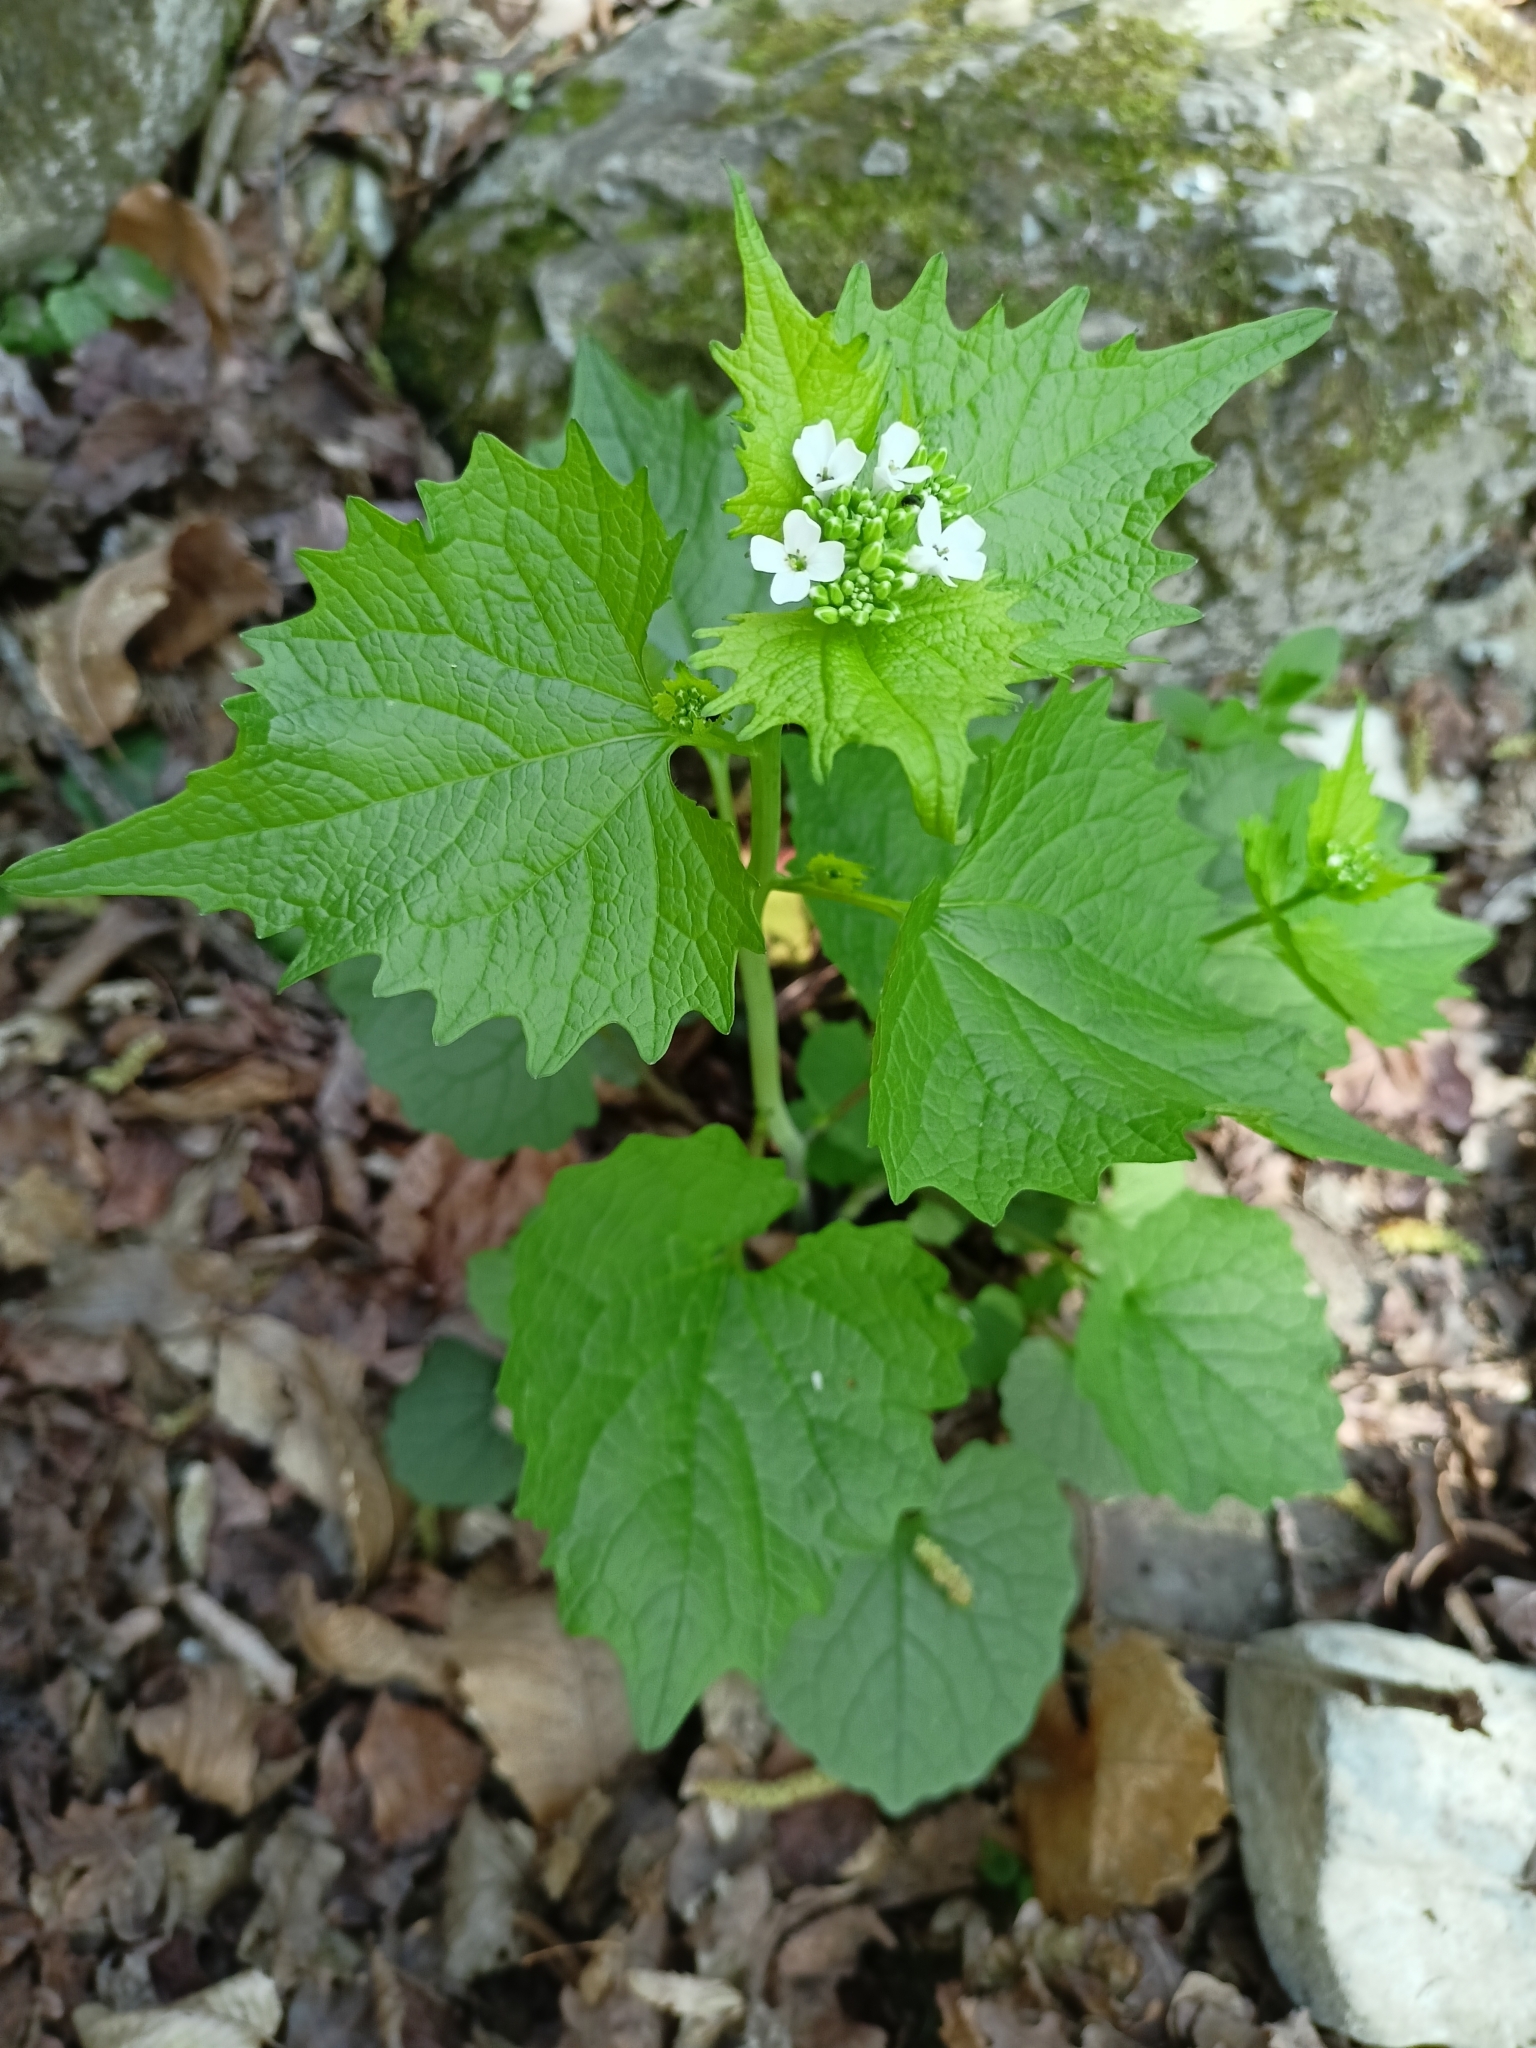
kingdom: Plantae
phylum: Tracheophyta
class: Magnoliopsida
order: Brassicales
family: Brassicaceae
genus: Alliaria
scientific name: Alliaria petiolata
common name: Garlic mustard
